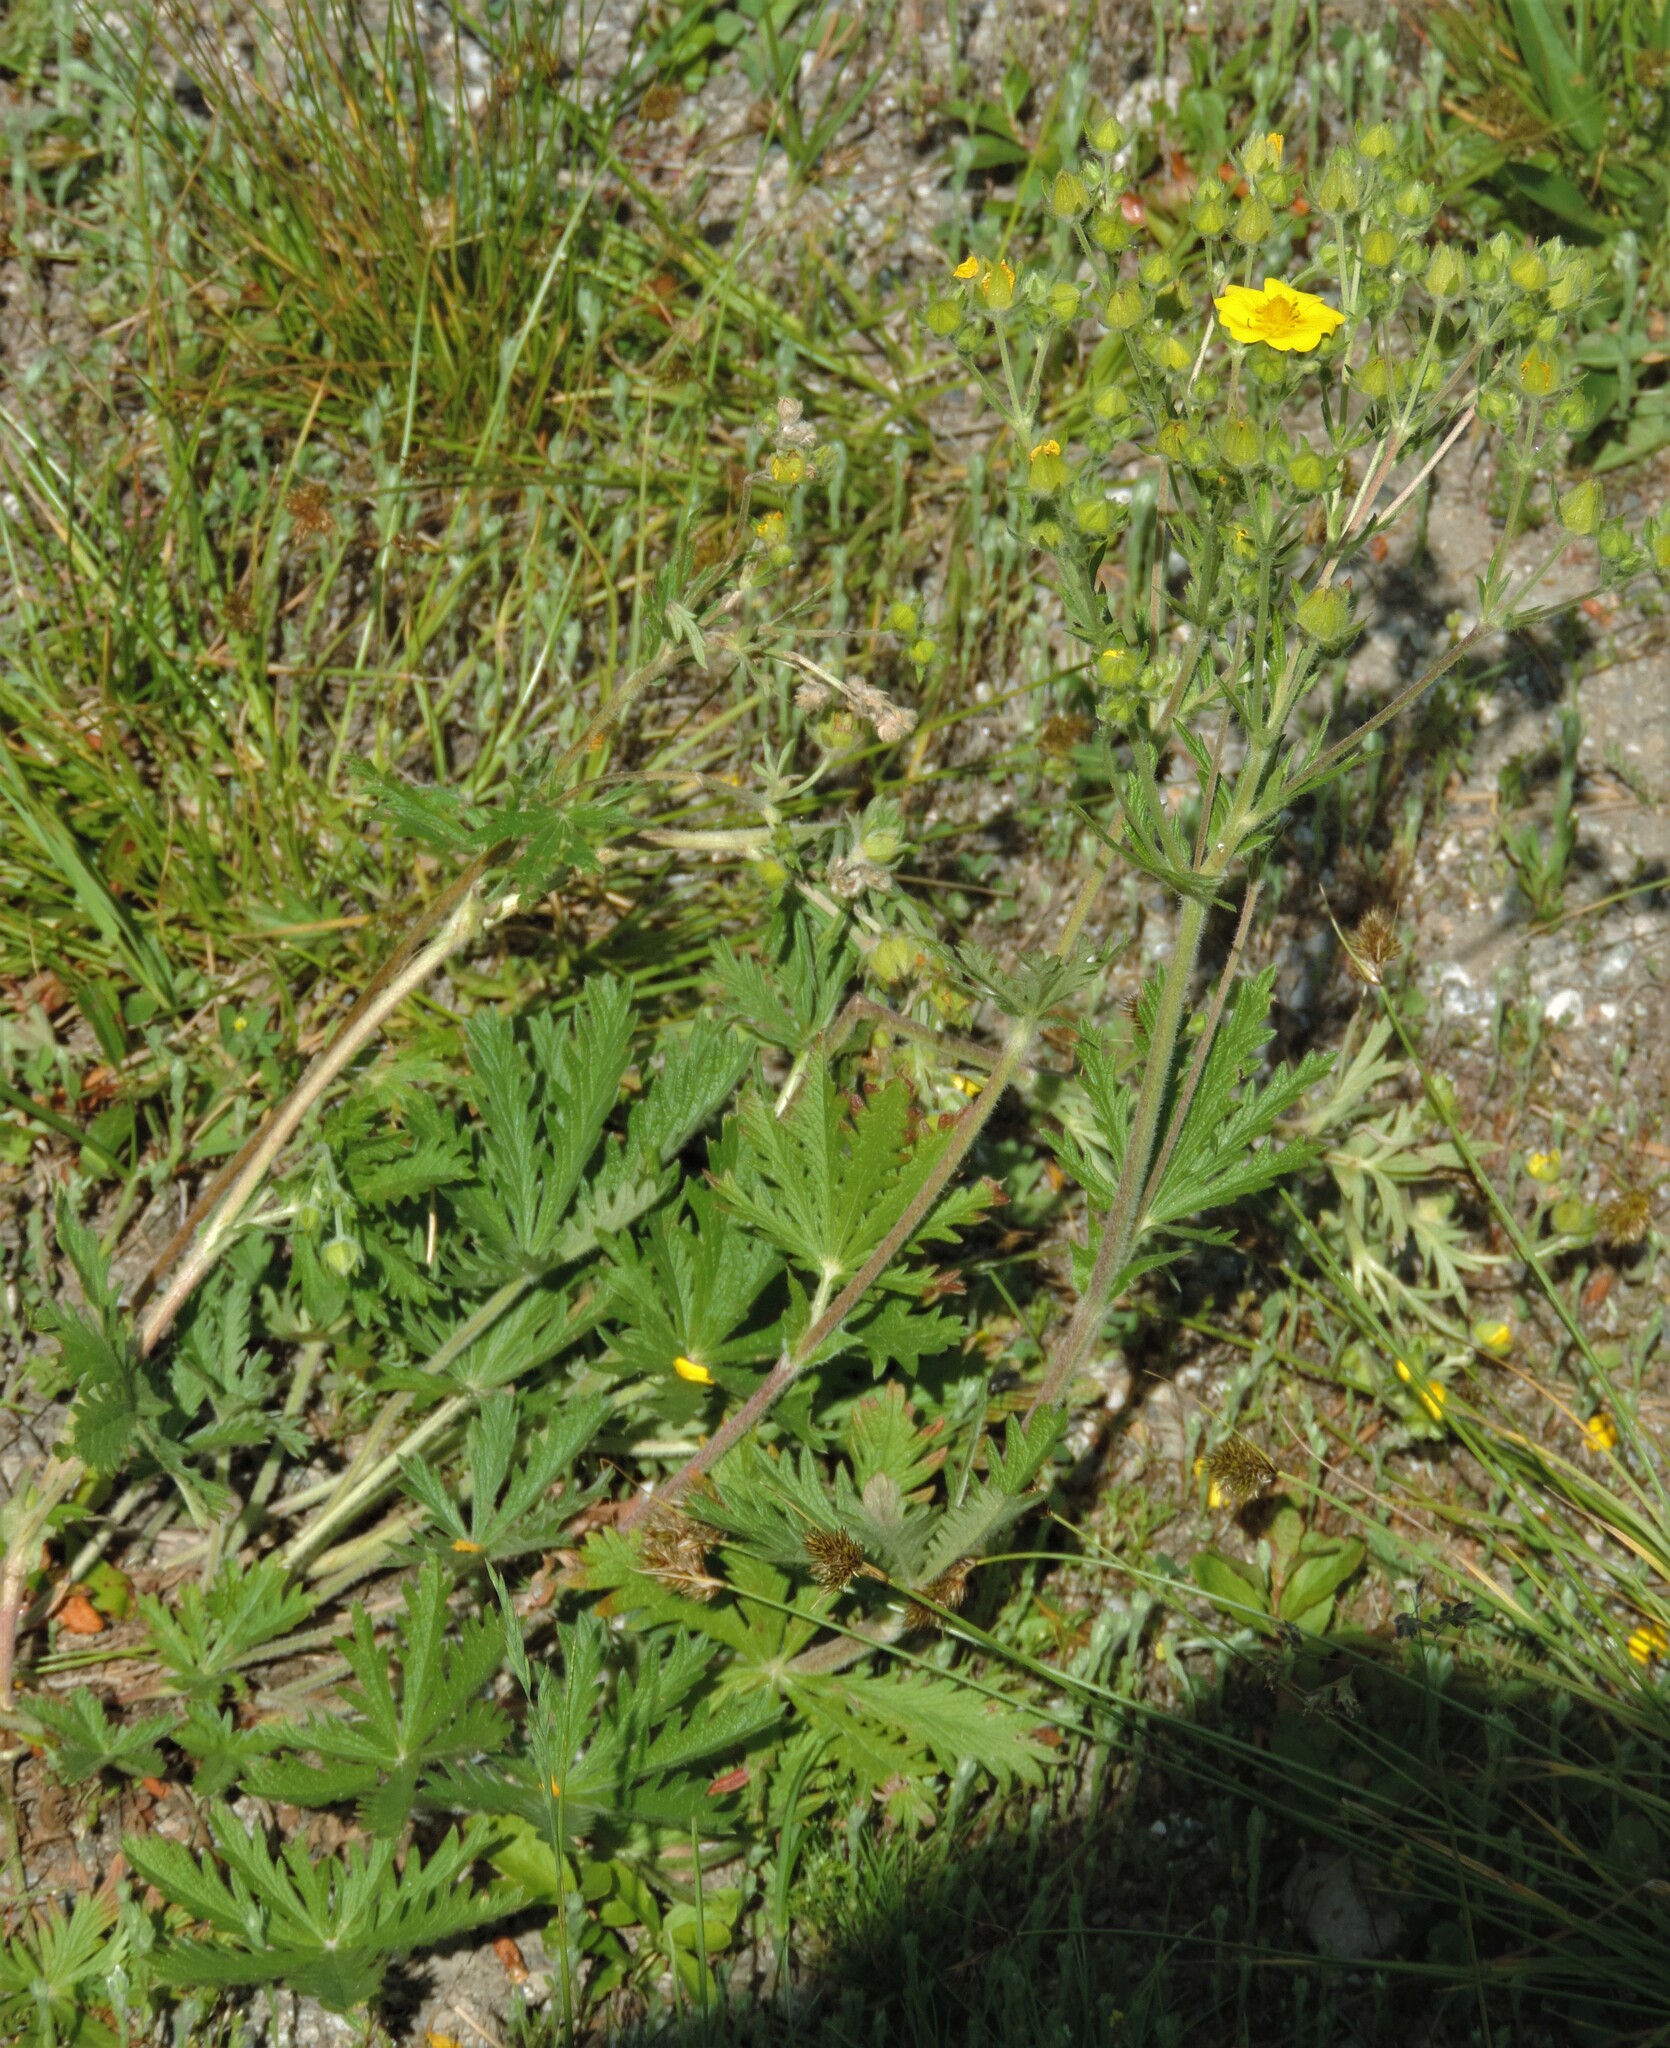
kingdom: Plantae
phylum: Tracheophyta
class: Magnoliopsida
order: Rosales
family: Rosaceae
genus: Potentilla
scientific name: Potentilla gracilis
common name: Graceful cinquefoil
